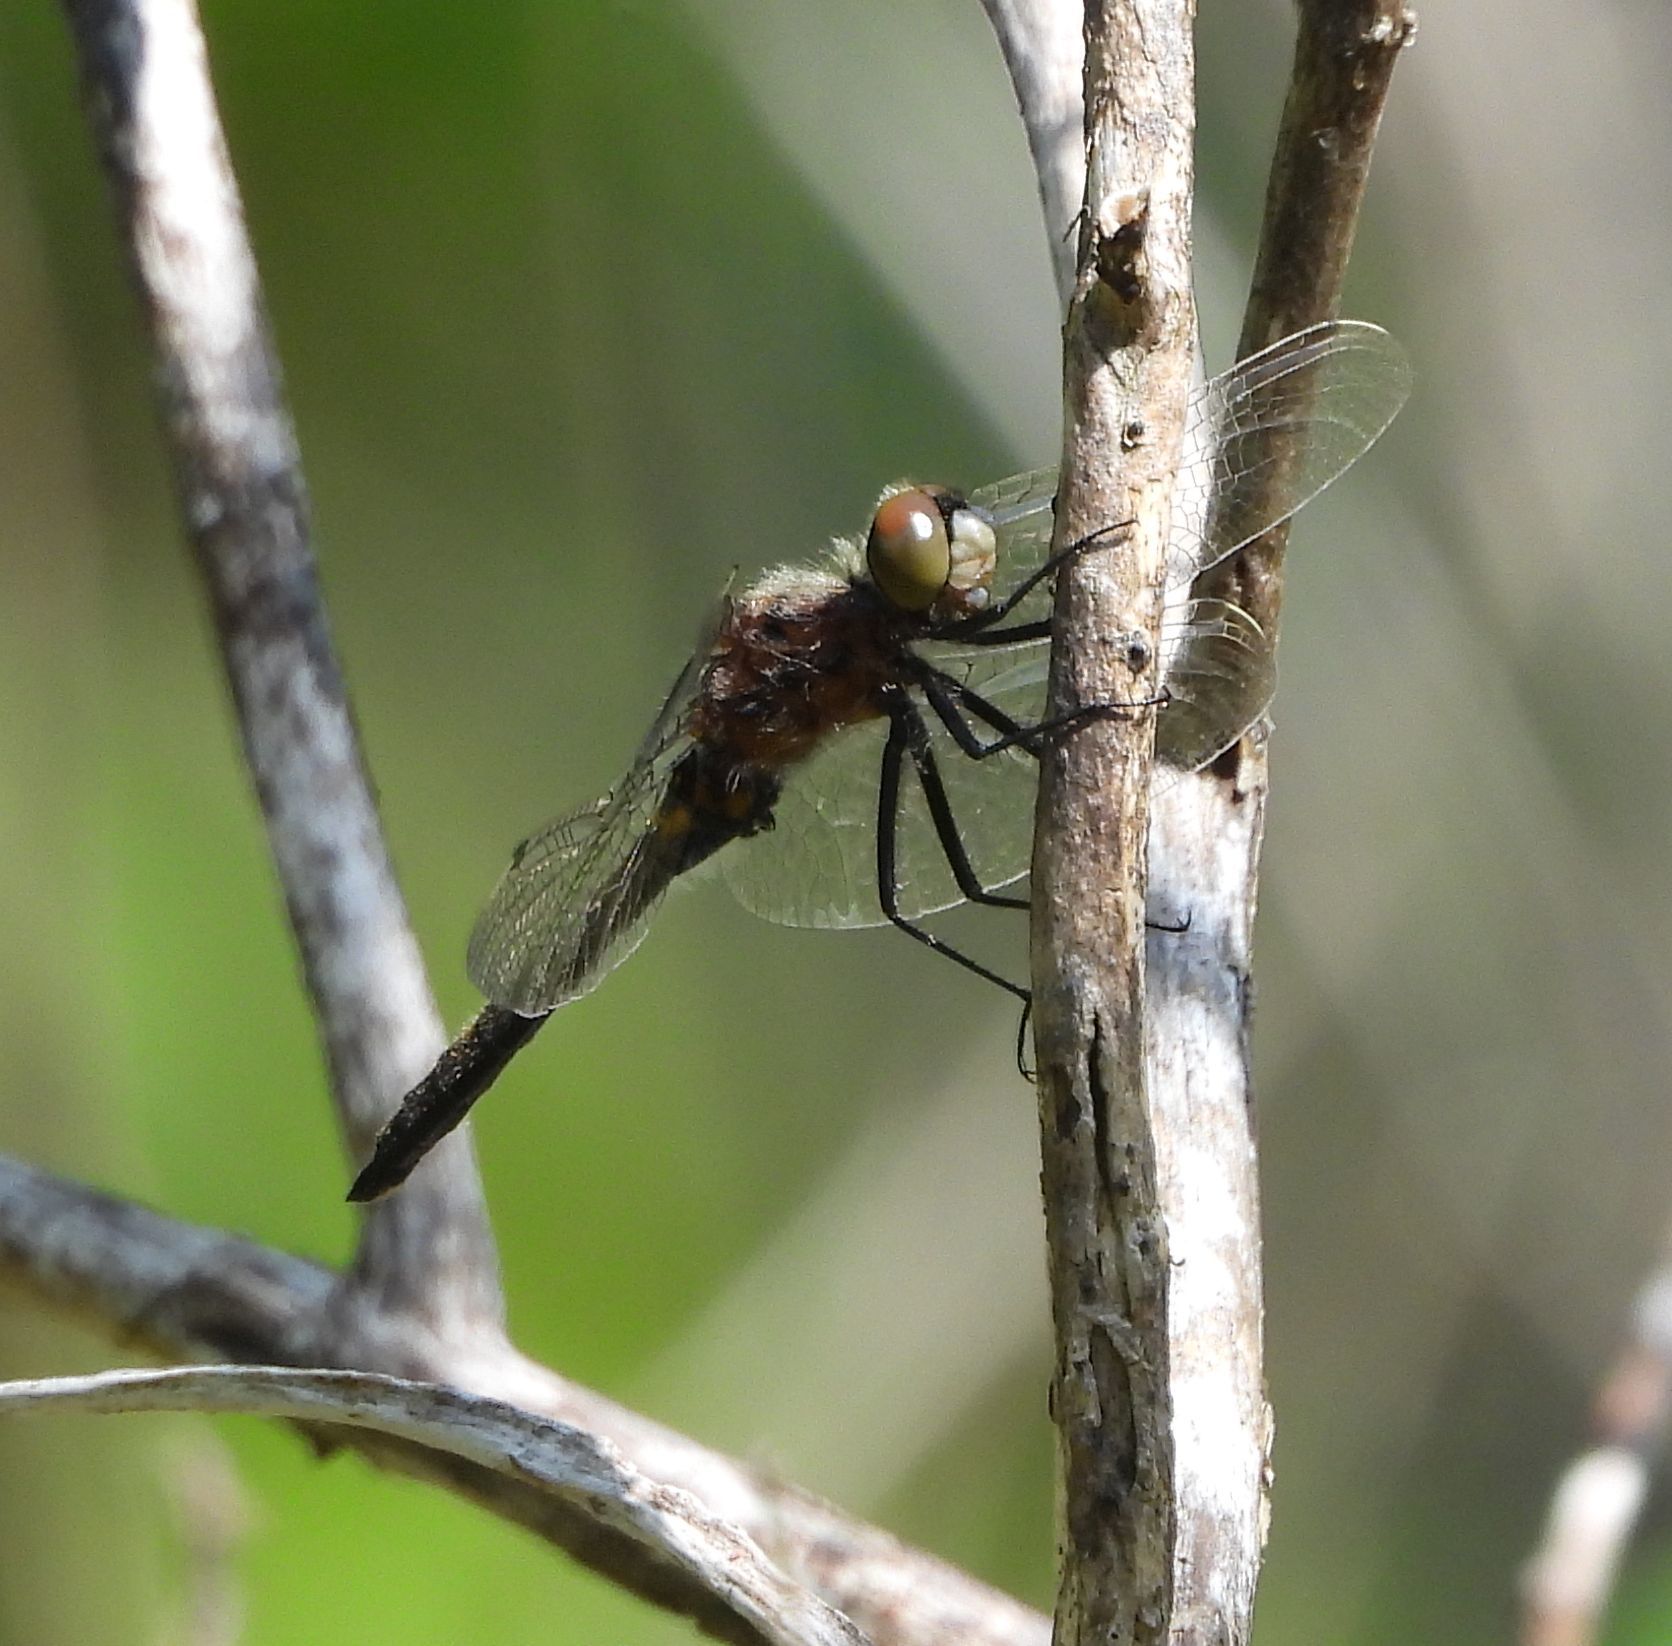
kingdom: Animalia
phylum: Arthropoda
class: Insecta
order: Odonata
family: Libellulidae
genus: Leucorrhinia
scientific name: Leucorrhinia intacta
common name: Dot-tailed whiteface
